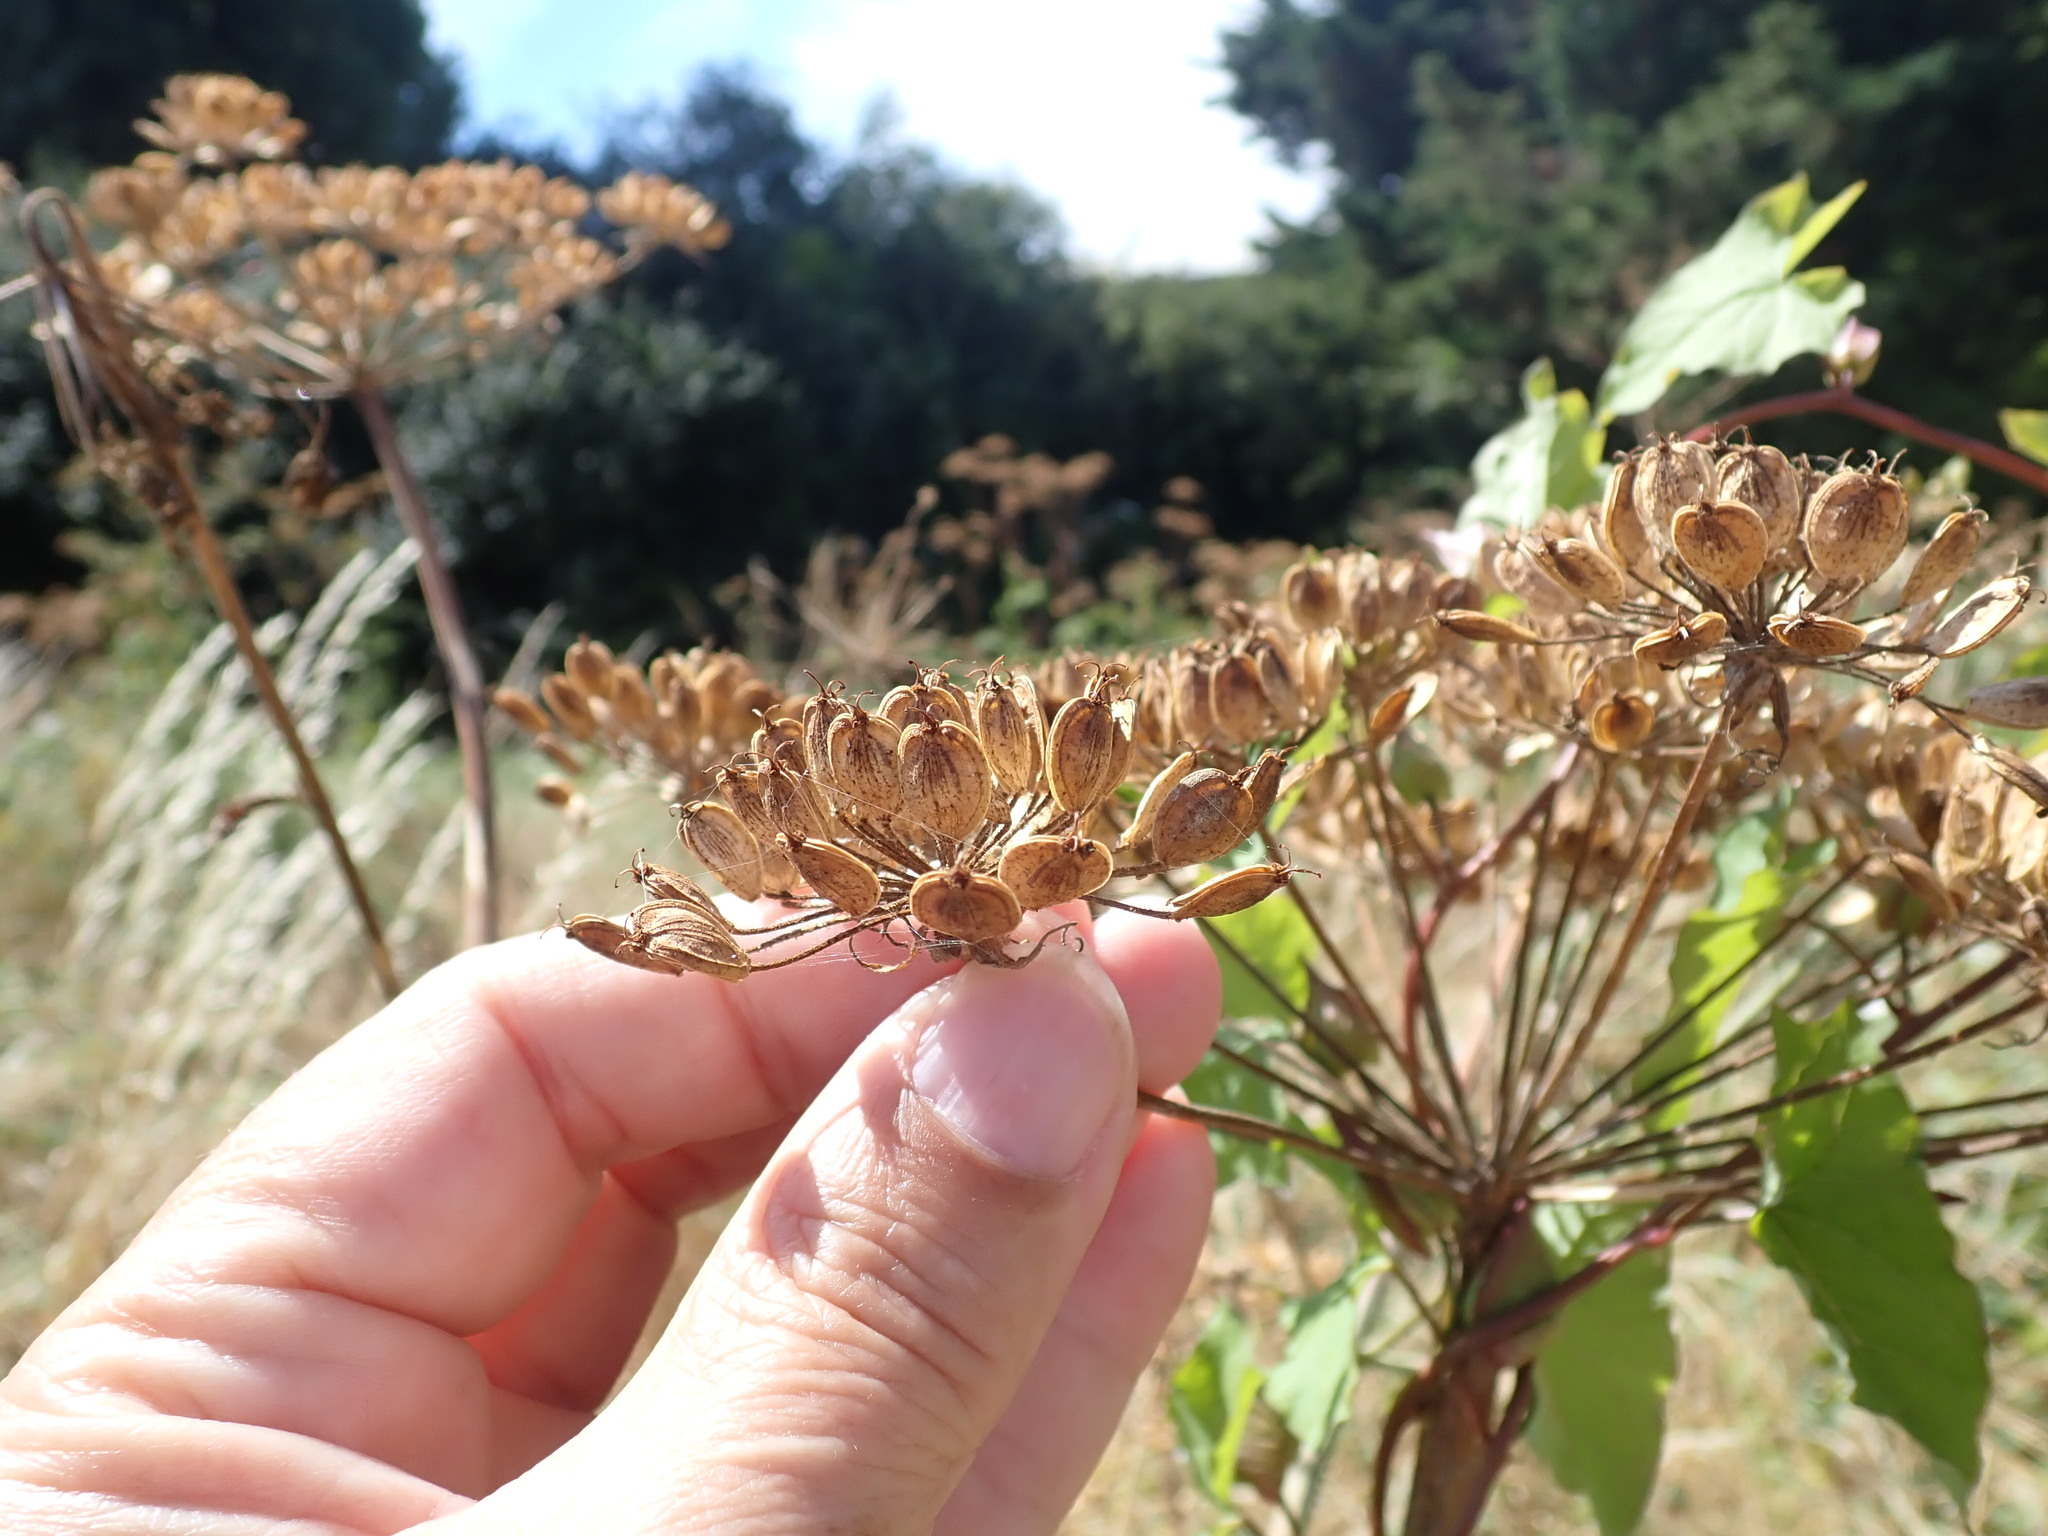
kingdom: Plantae
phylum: Tracheophyta
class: Magnoliopsida
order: Apiales
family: Apiaceae
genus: Heracleum
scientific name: Heracleum sphondylium
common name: Hogweed
